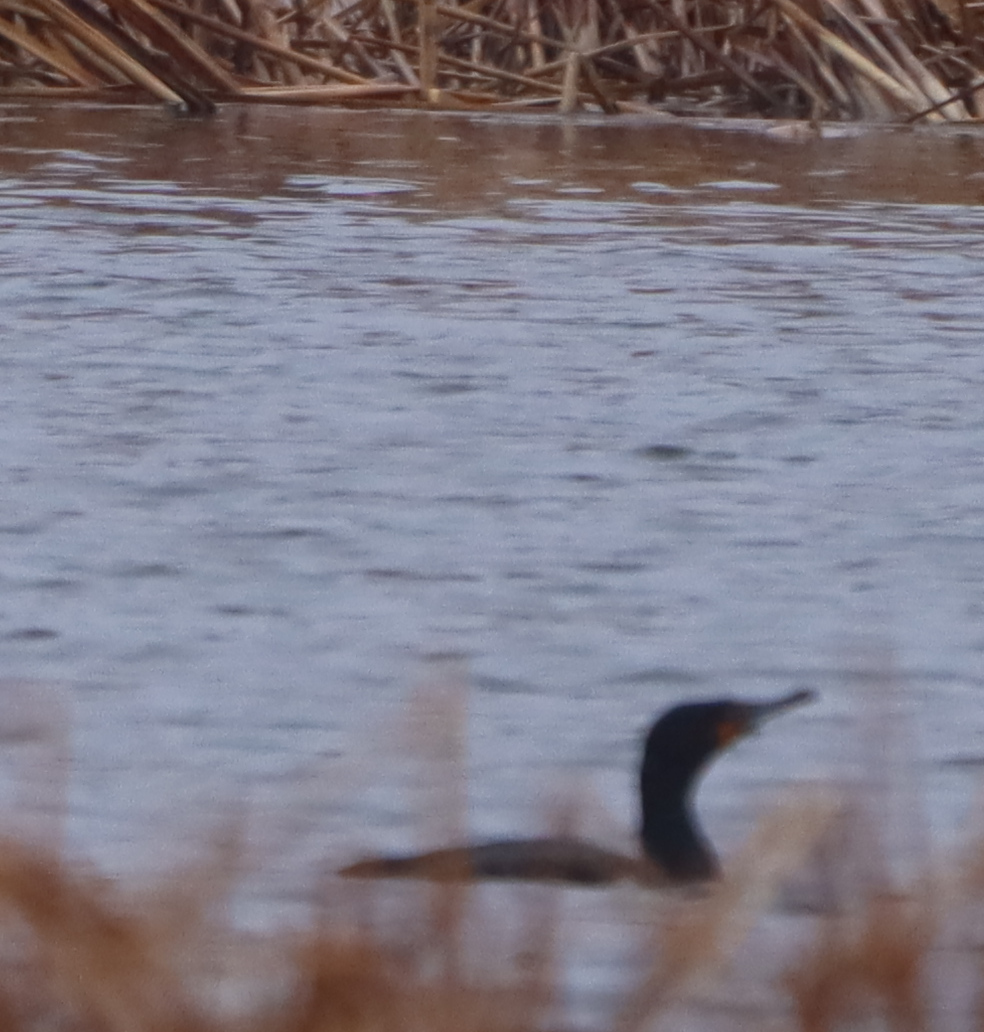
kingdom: Animalia
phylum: Chordata
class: Aves
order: Suliformes
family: Phalacrocoracidae
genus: Phalacrocorax
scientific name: Phalacrocorax auritus
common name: Double-crested cormorant
